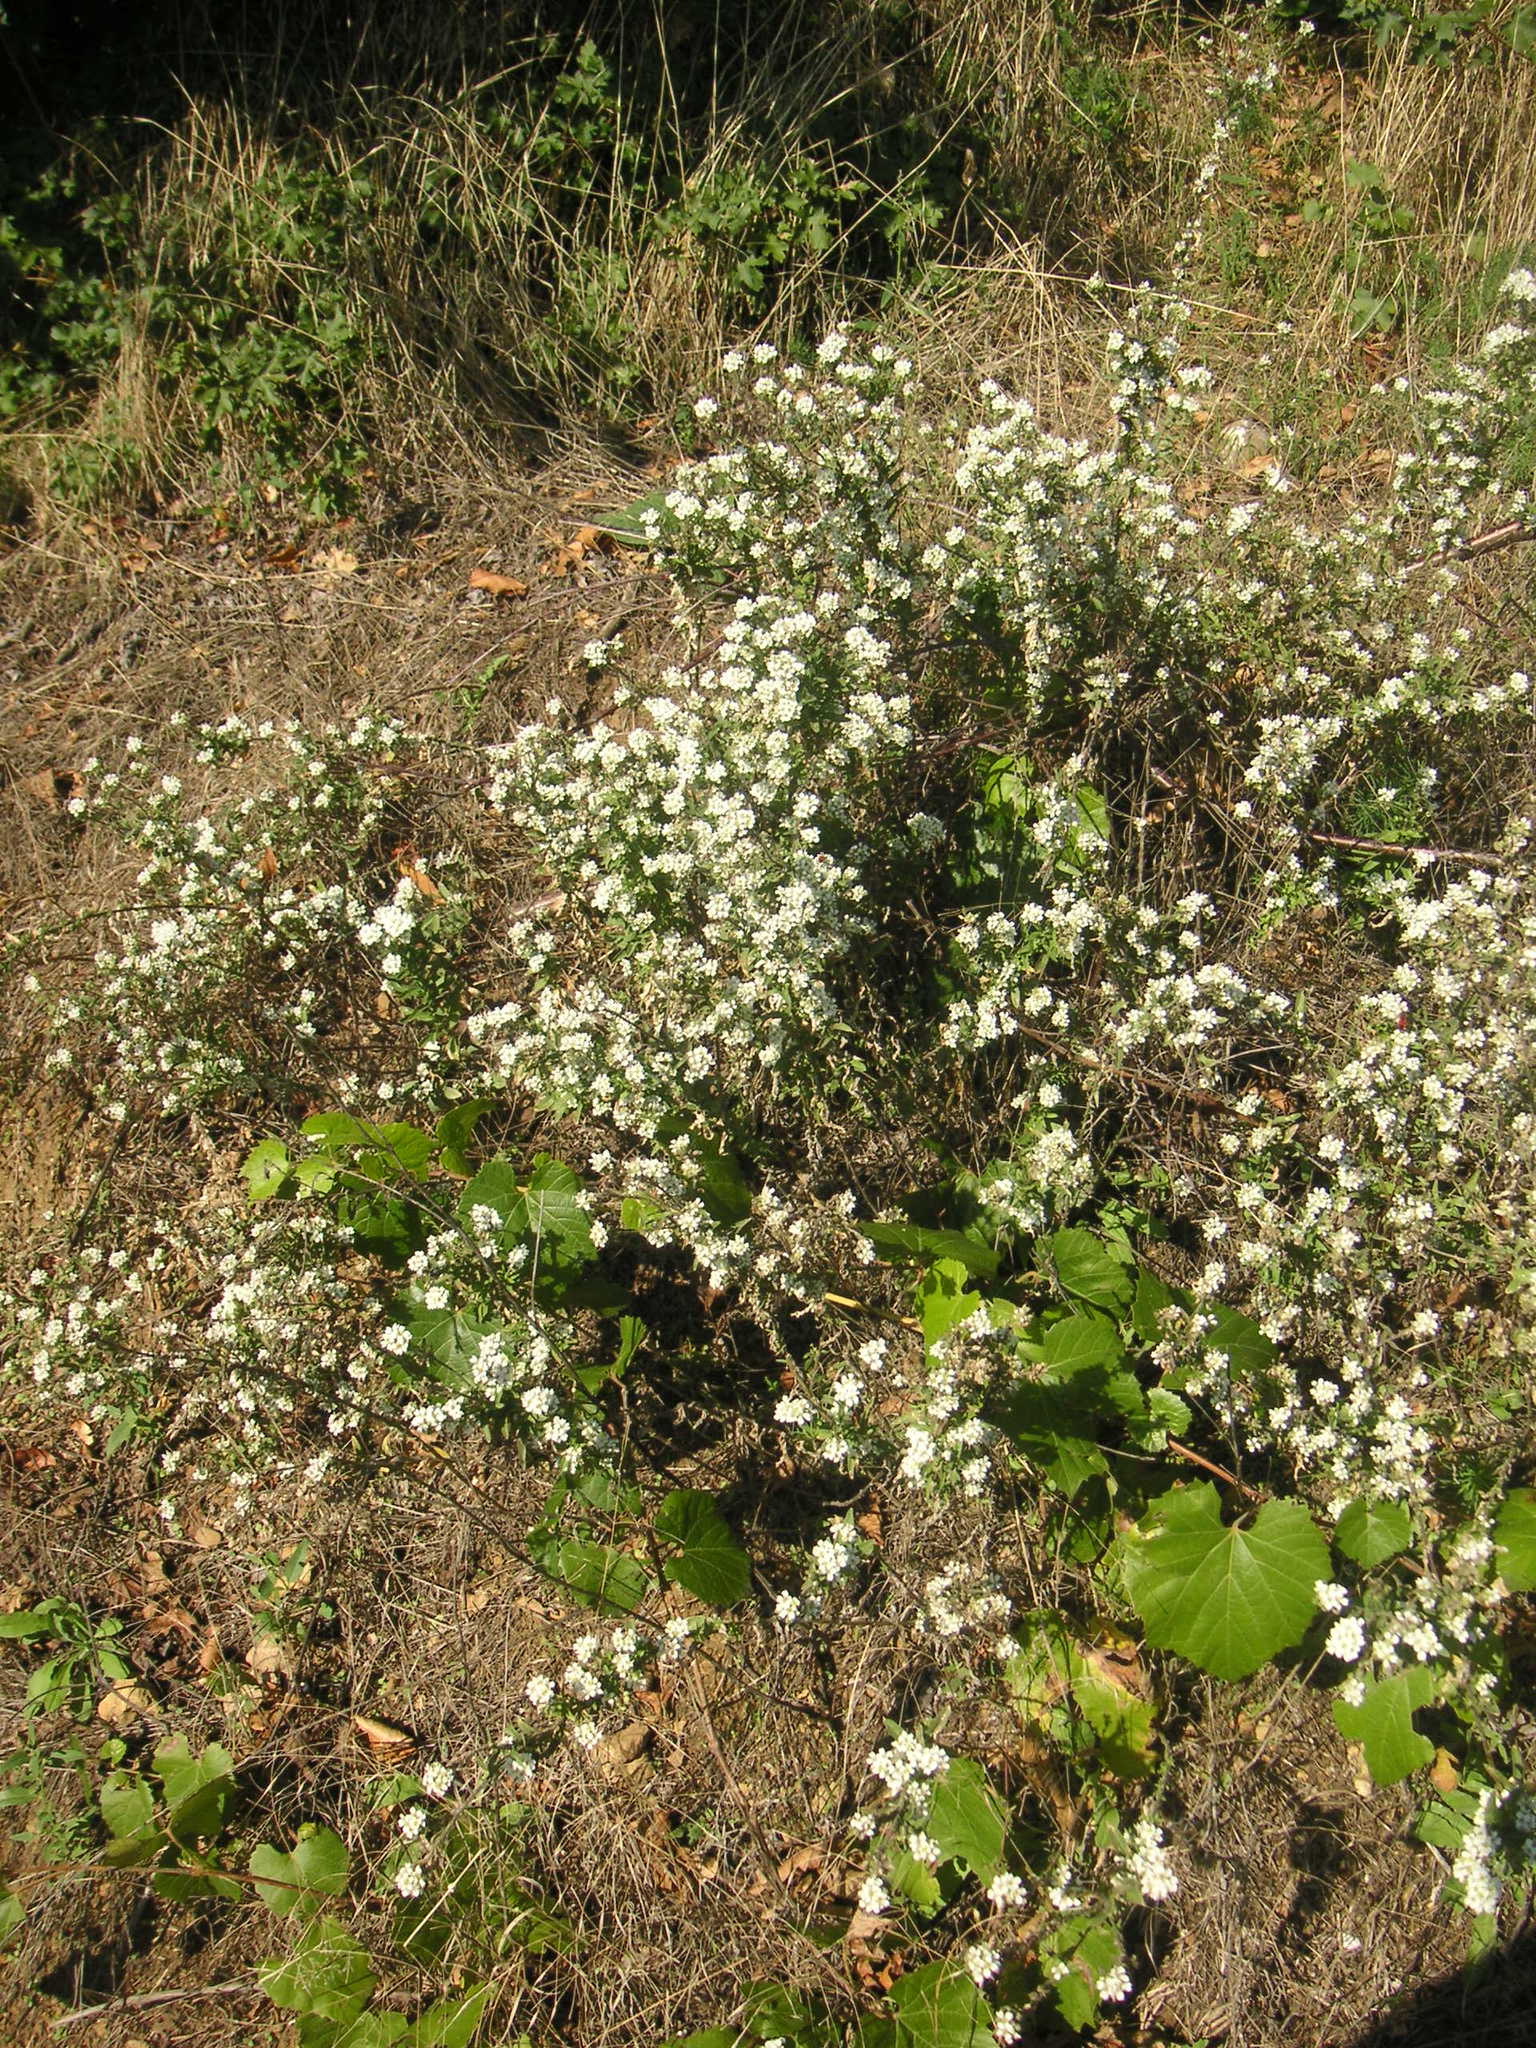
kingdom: Plantae
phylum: Tracheophyta
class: Magnoliopsida
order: Brassicales
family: Brassicaceae
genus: Berteroa
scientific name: Berteroa incana
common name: Hoary alison
